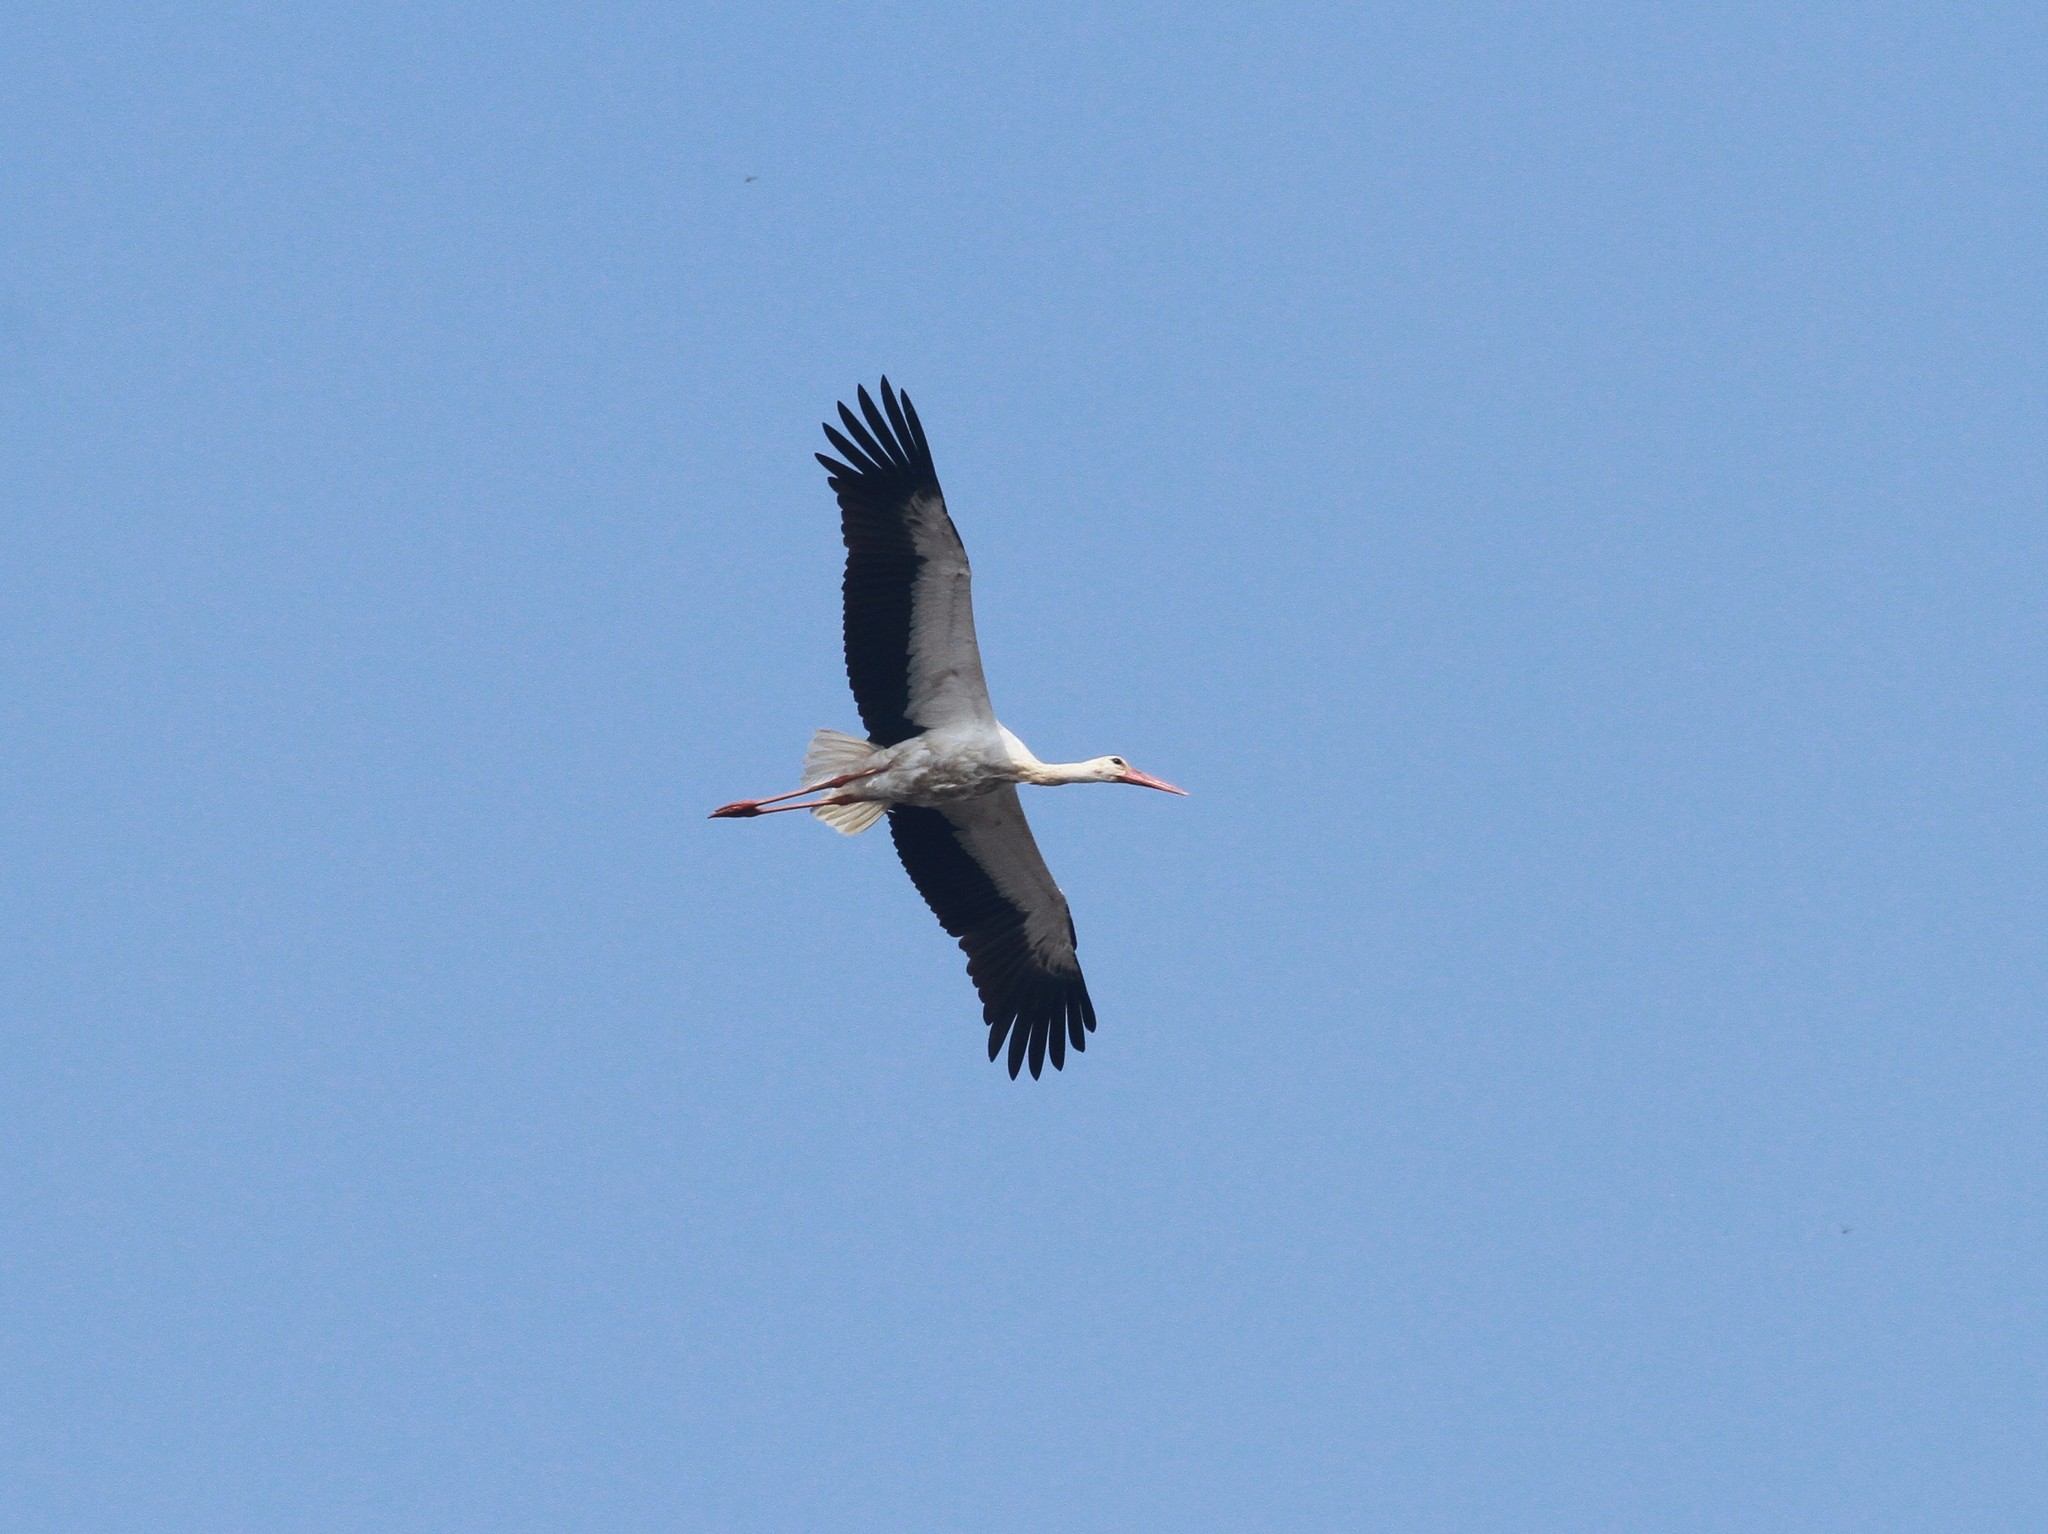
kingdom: Animalia
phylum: Chordata
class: Aves
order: Ciconiiformes
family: Ciconiidae
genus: Ciconia
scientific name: Ciconia ciconia
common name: White stork
